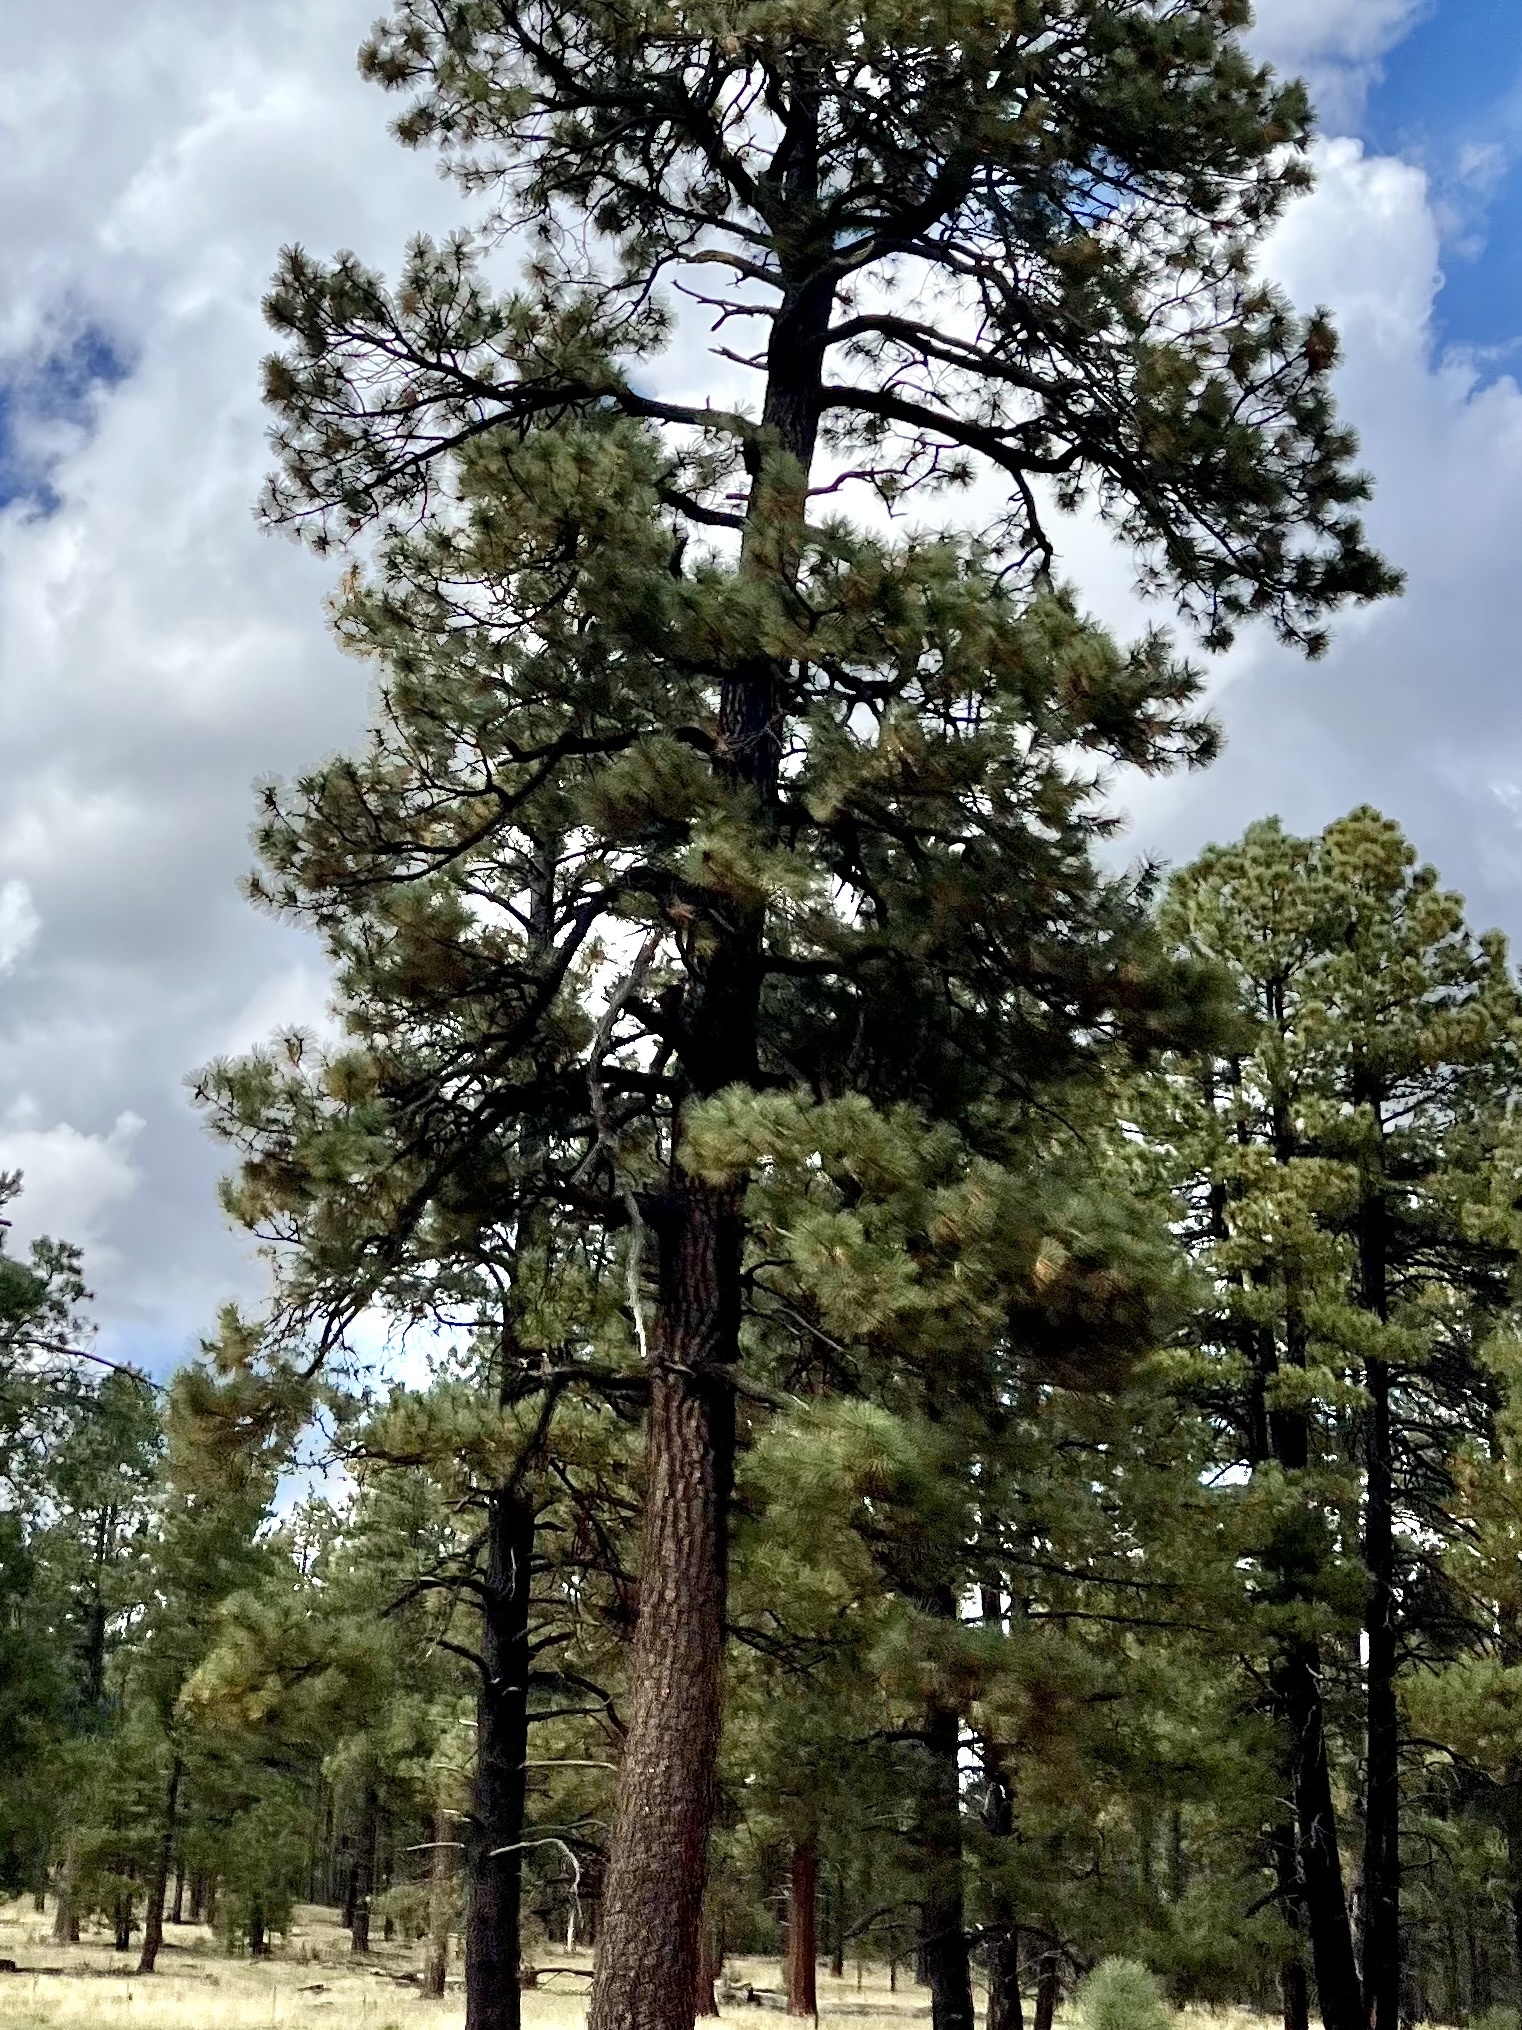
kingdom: Plantae
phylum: Tracheophyta
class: Pinopsida
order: Pinales
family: Pinaceae
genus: Pinus
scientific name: Pinus ponderosa
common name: Western yellow-pine
